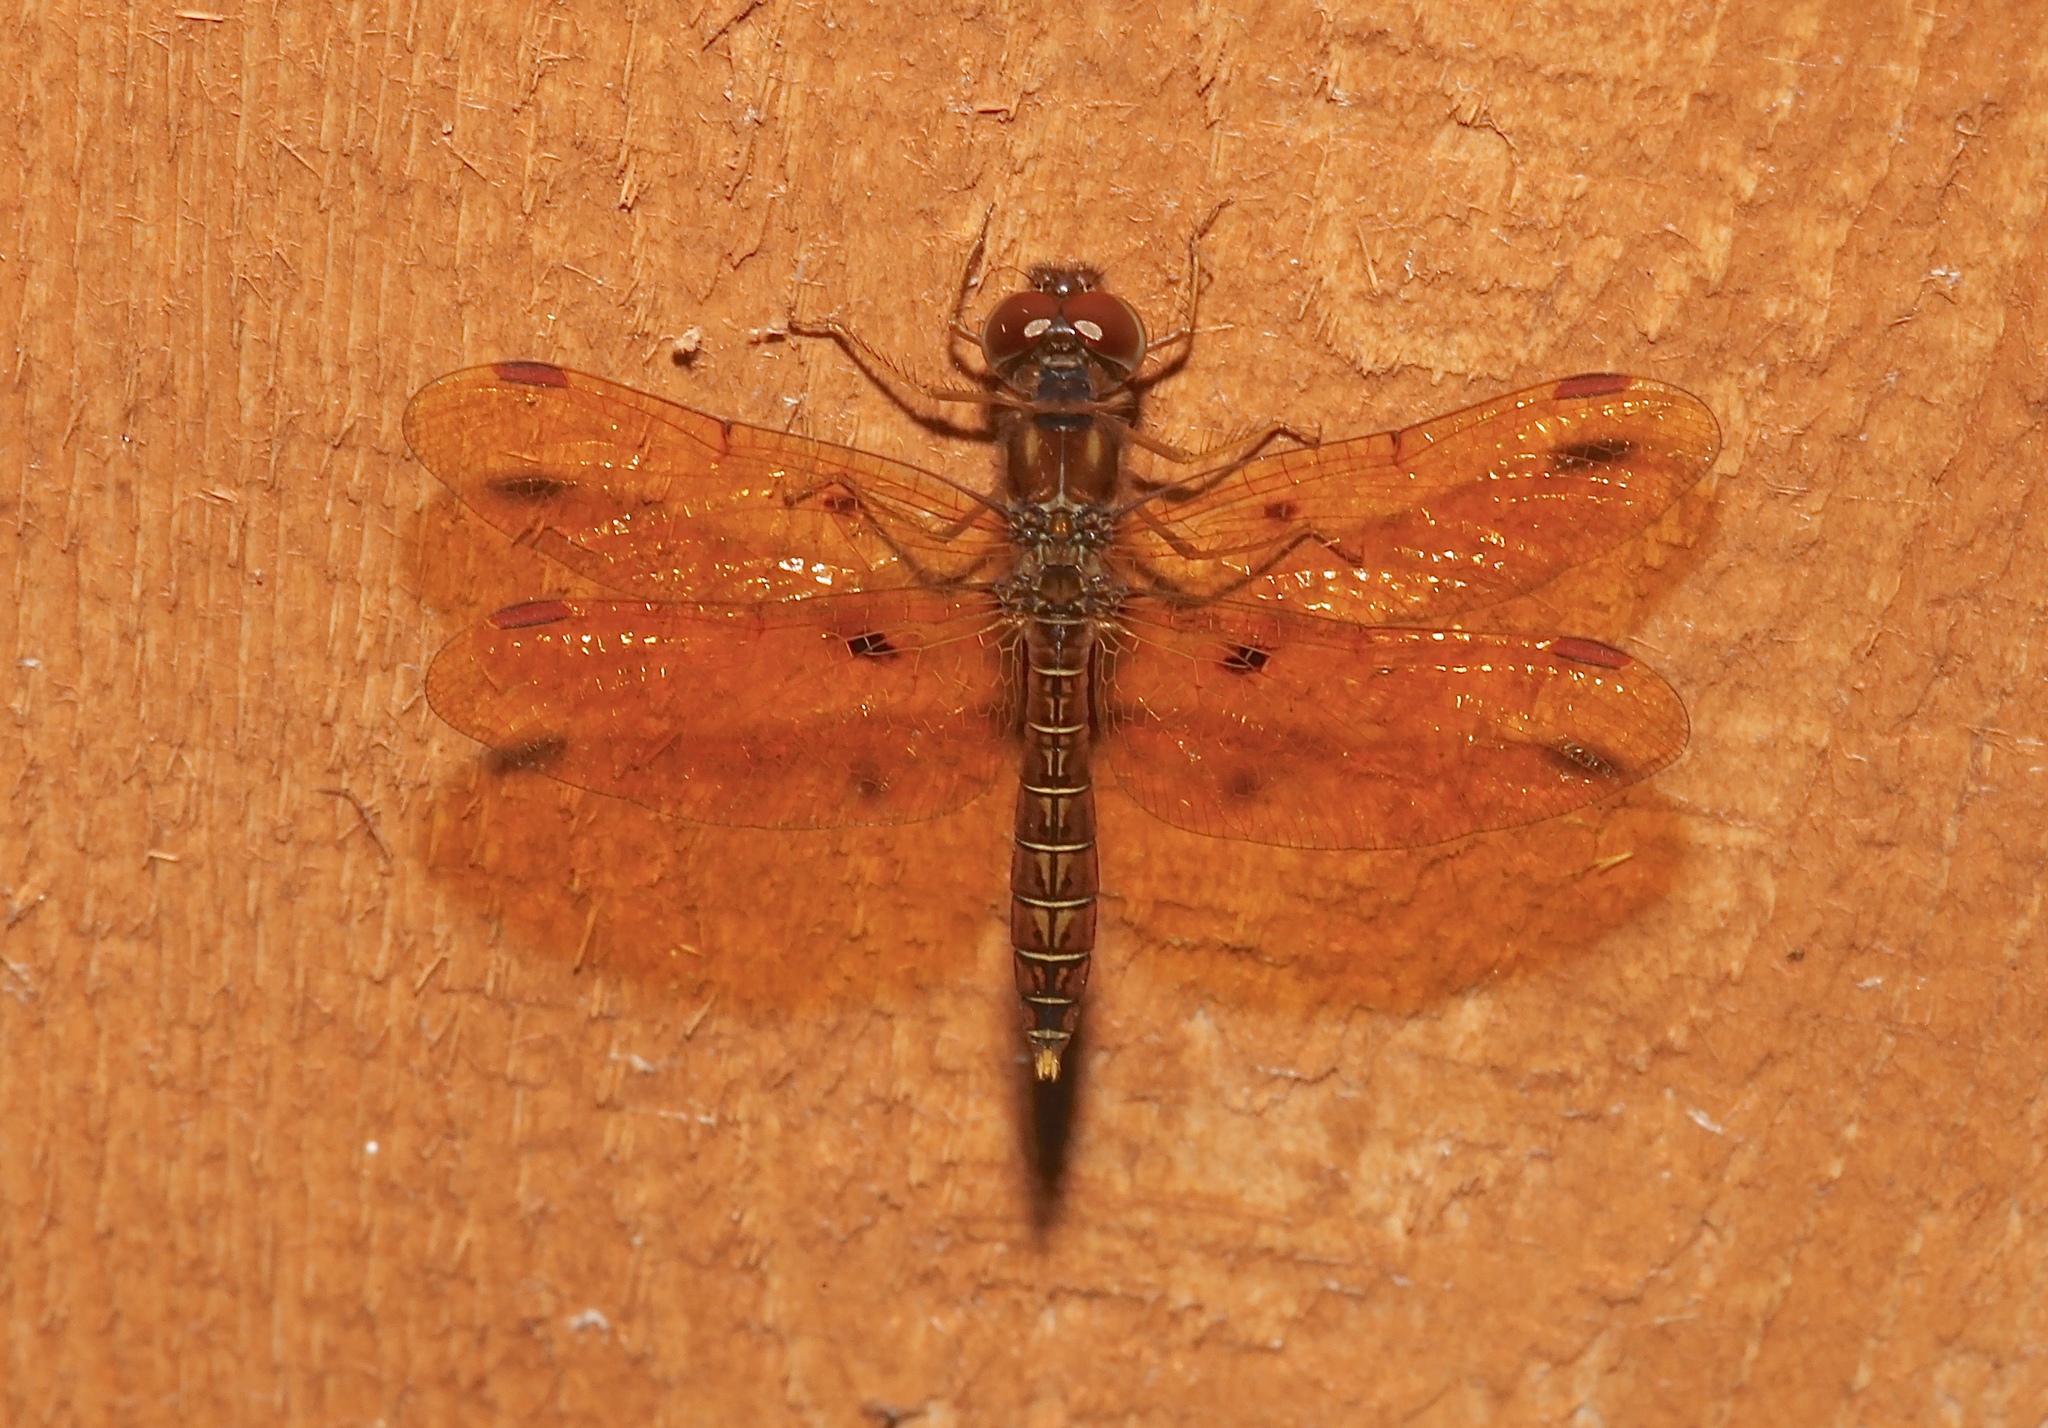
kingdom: Animalia
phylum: Arthropoda
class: Insecta
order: Odonata
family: Libellulidae
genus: Perithemis
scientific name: Perithemis tenera
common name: Eastern amberwing
